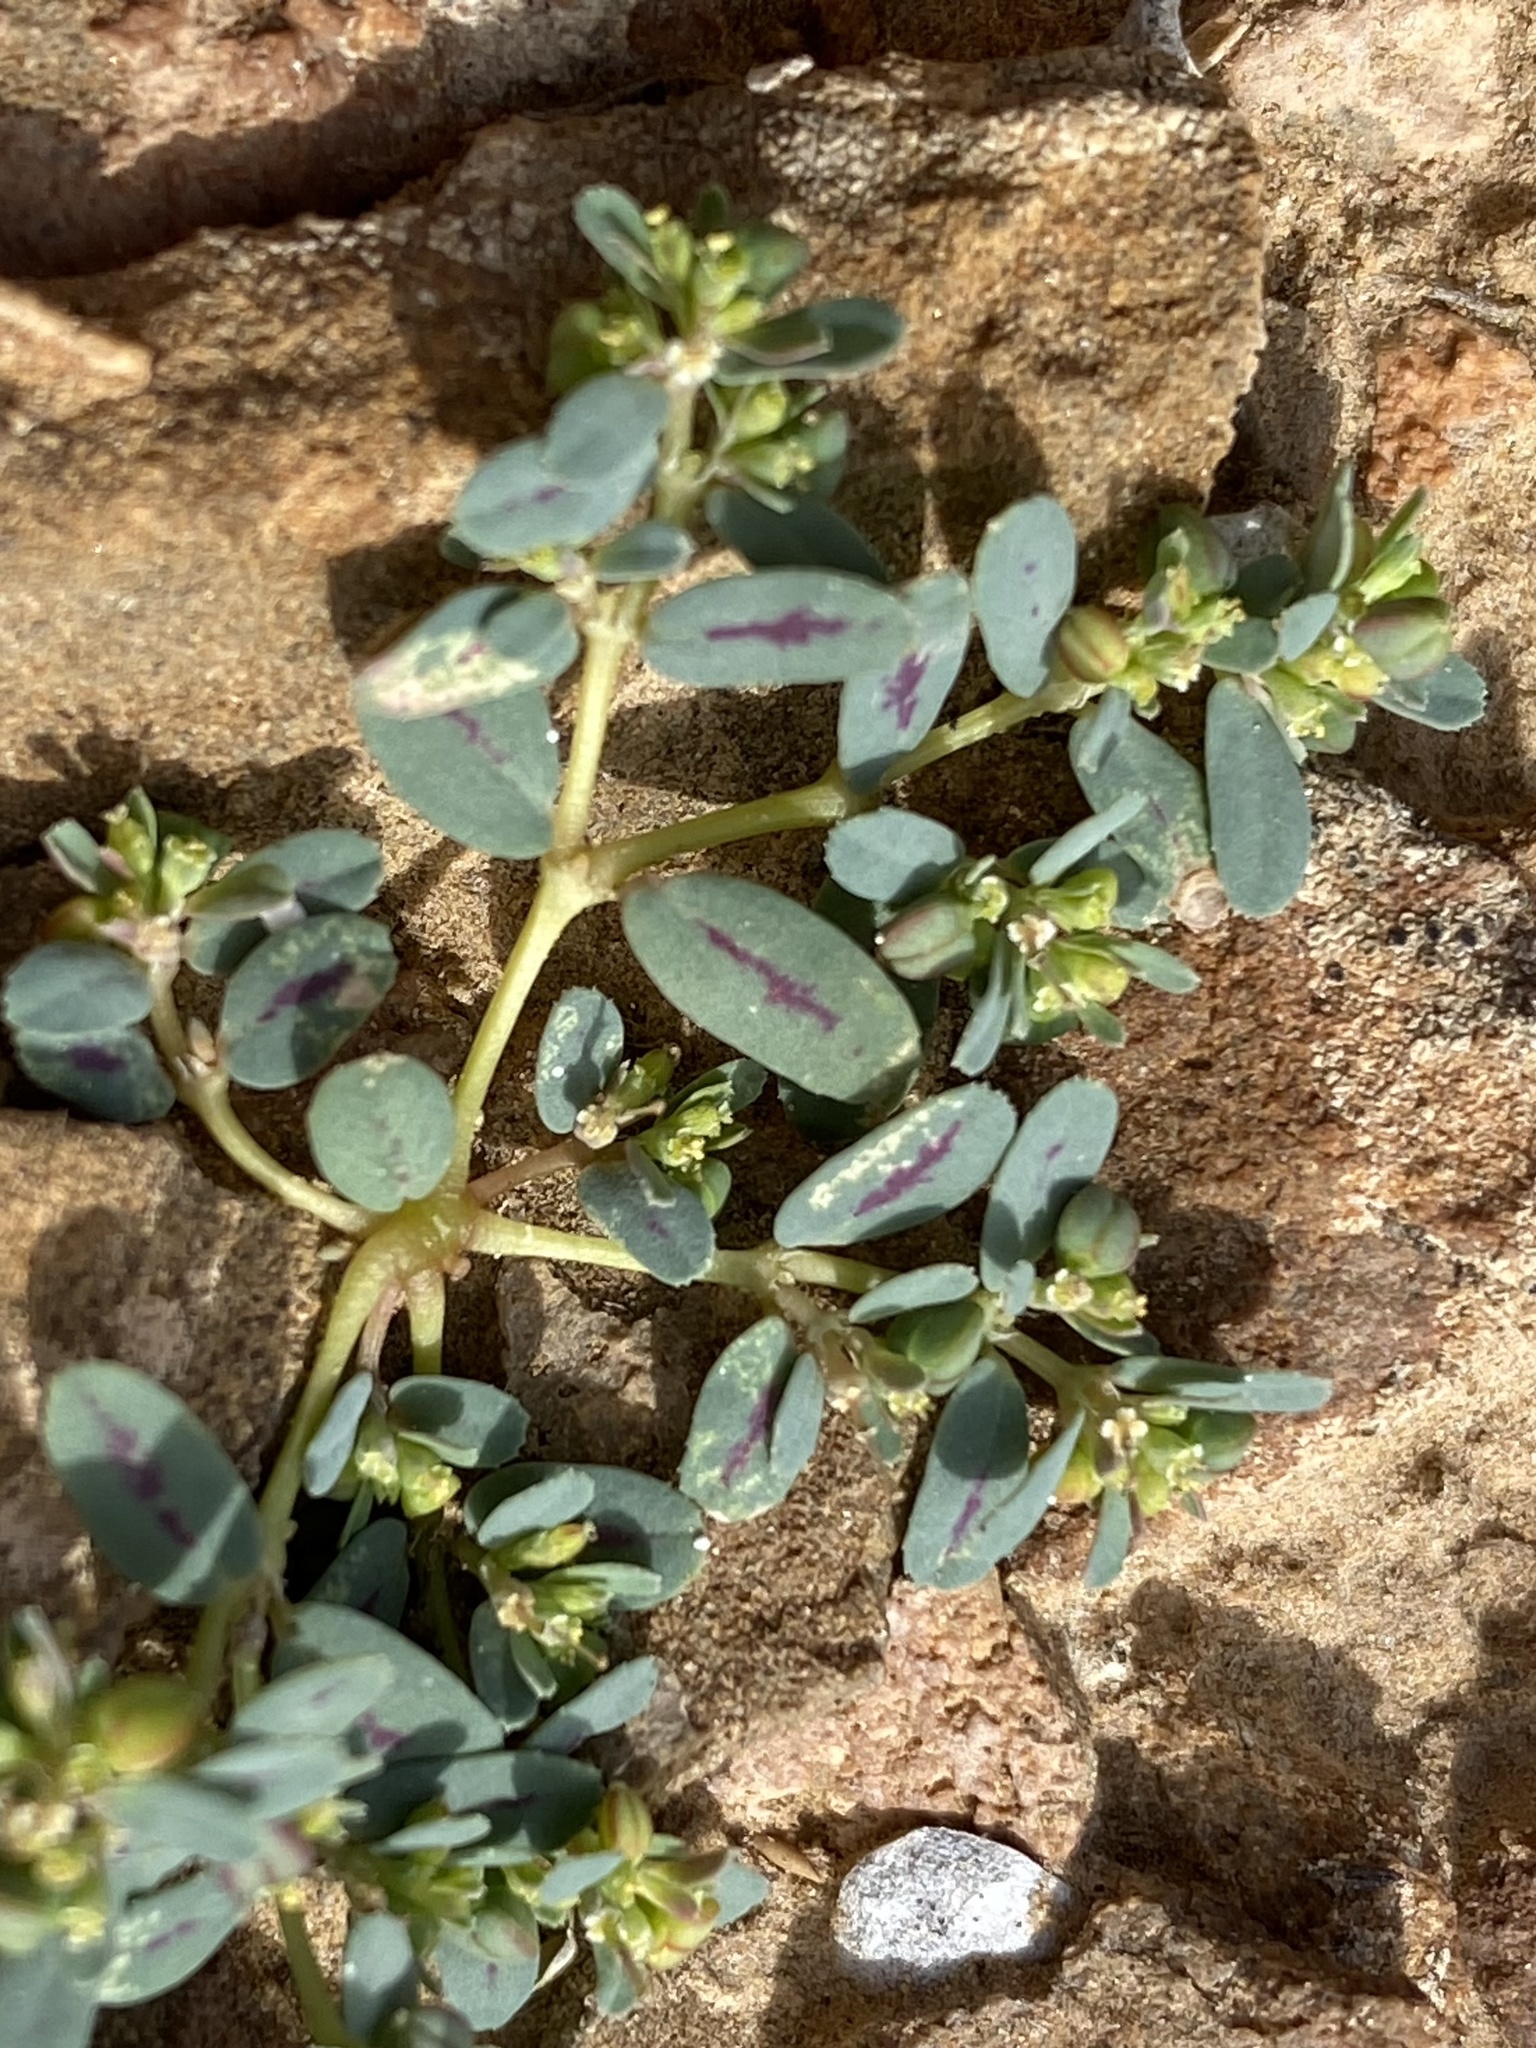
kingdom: Plantae
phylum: Tracheophyta
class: Magnoliopsida
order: Malpighiales
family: Euphorbiaceae
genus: Euphorbia
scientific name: Euphorbia serpillifolia
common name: Thyme-leaf spurge
